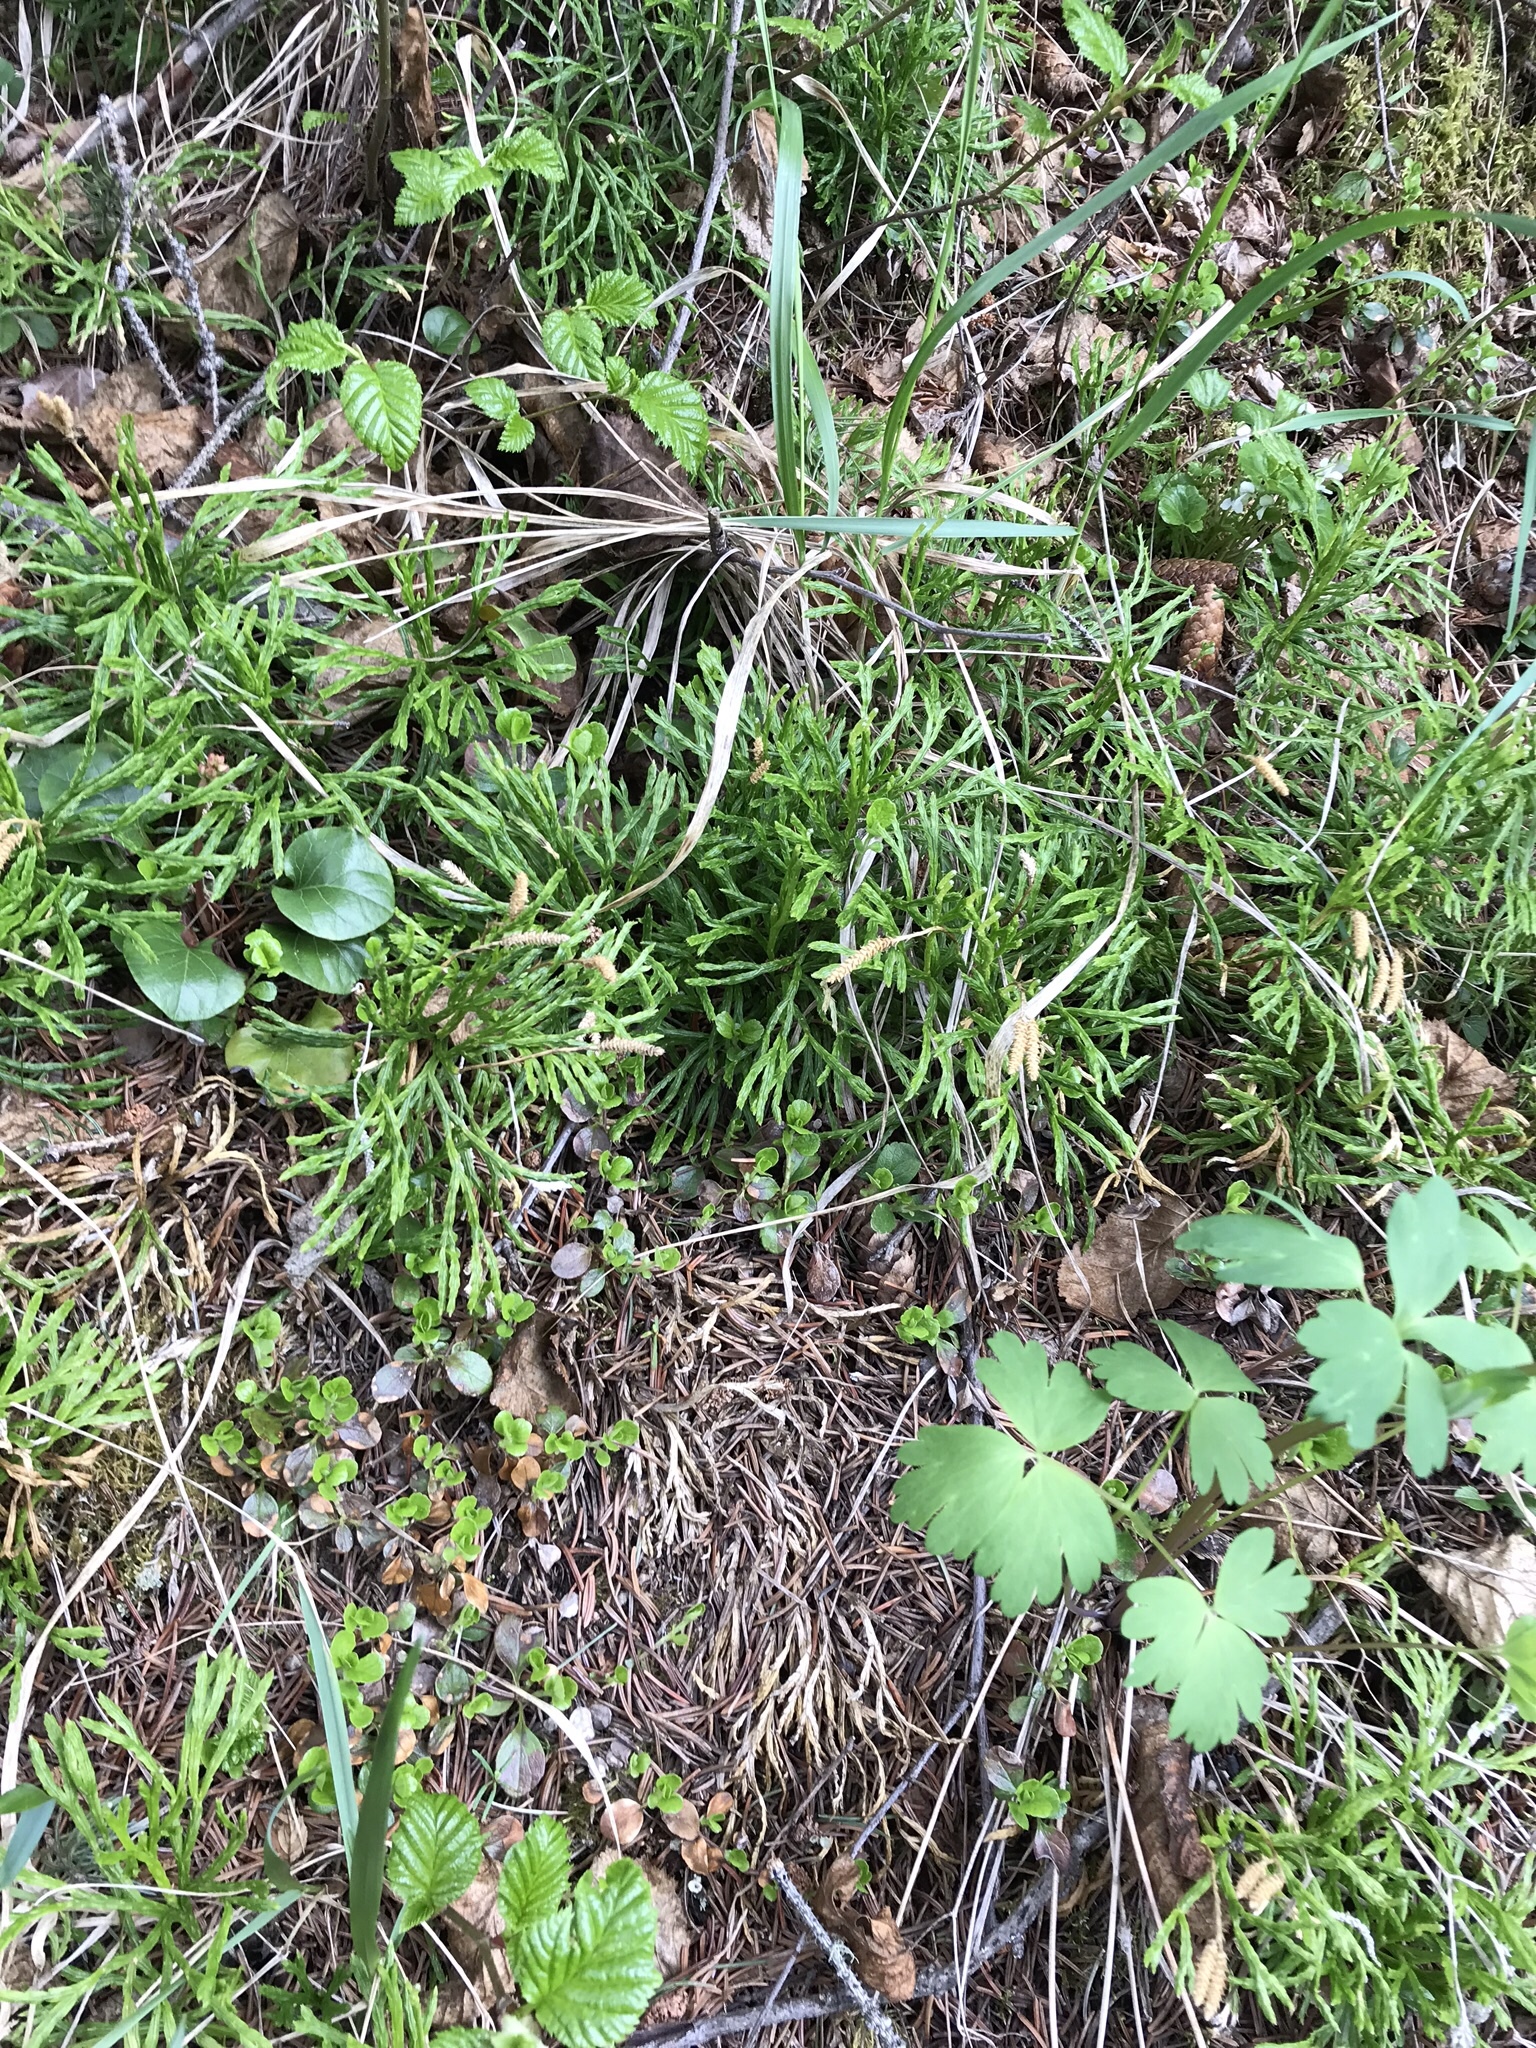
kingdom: Plantae
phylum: Tracheophyta
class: Lycopodiopsida
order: Lycopodiales
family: Lycopodiaceae
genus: Diphasiastrum
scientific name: Diphasiastrum complanatum
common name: Northern running-pine
